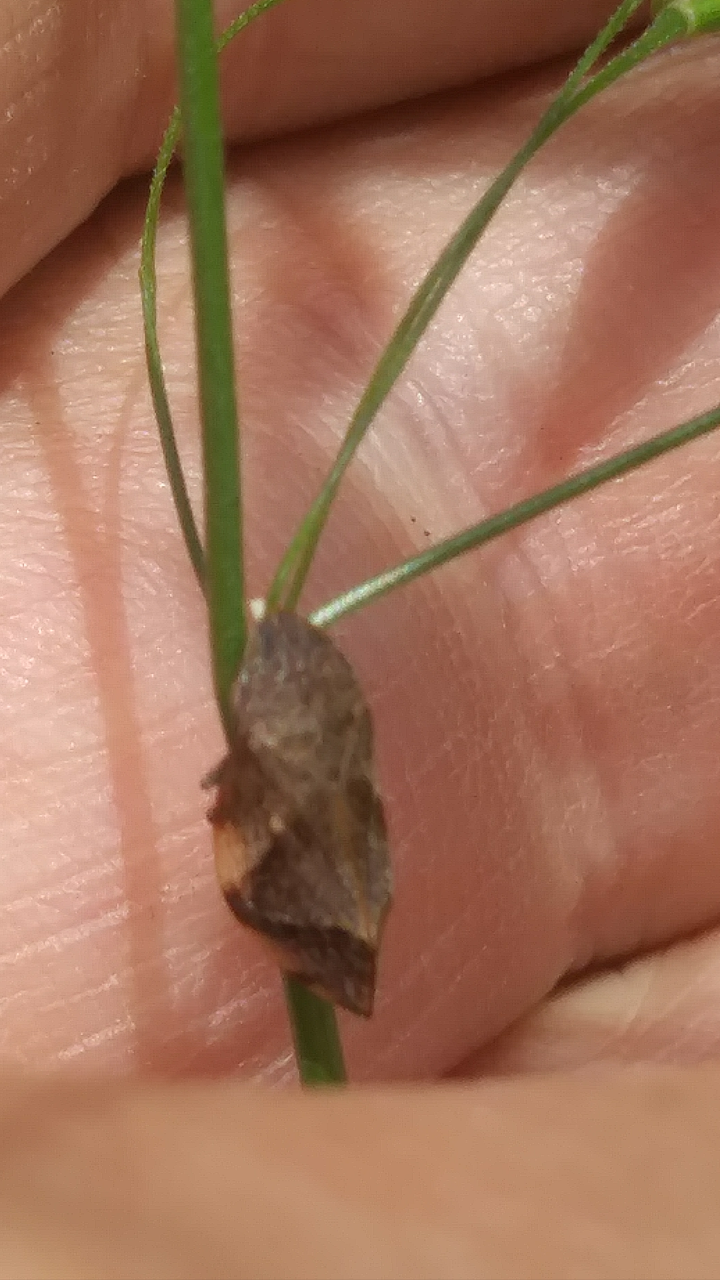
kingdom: Animalia
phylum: Arthropoda
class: Insecta
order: Hemiptera
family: Aphrophoridae
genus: Lepyronia
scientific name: Lepyronia quadrangularis
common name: Diamond-backed spittlebug
